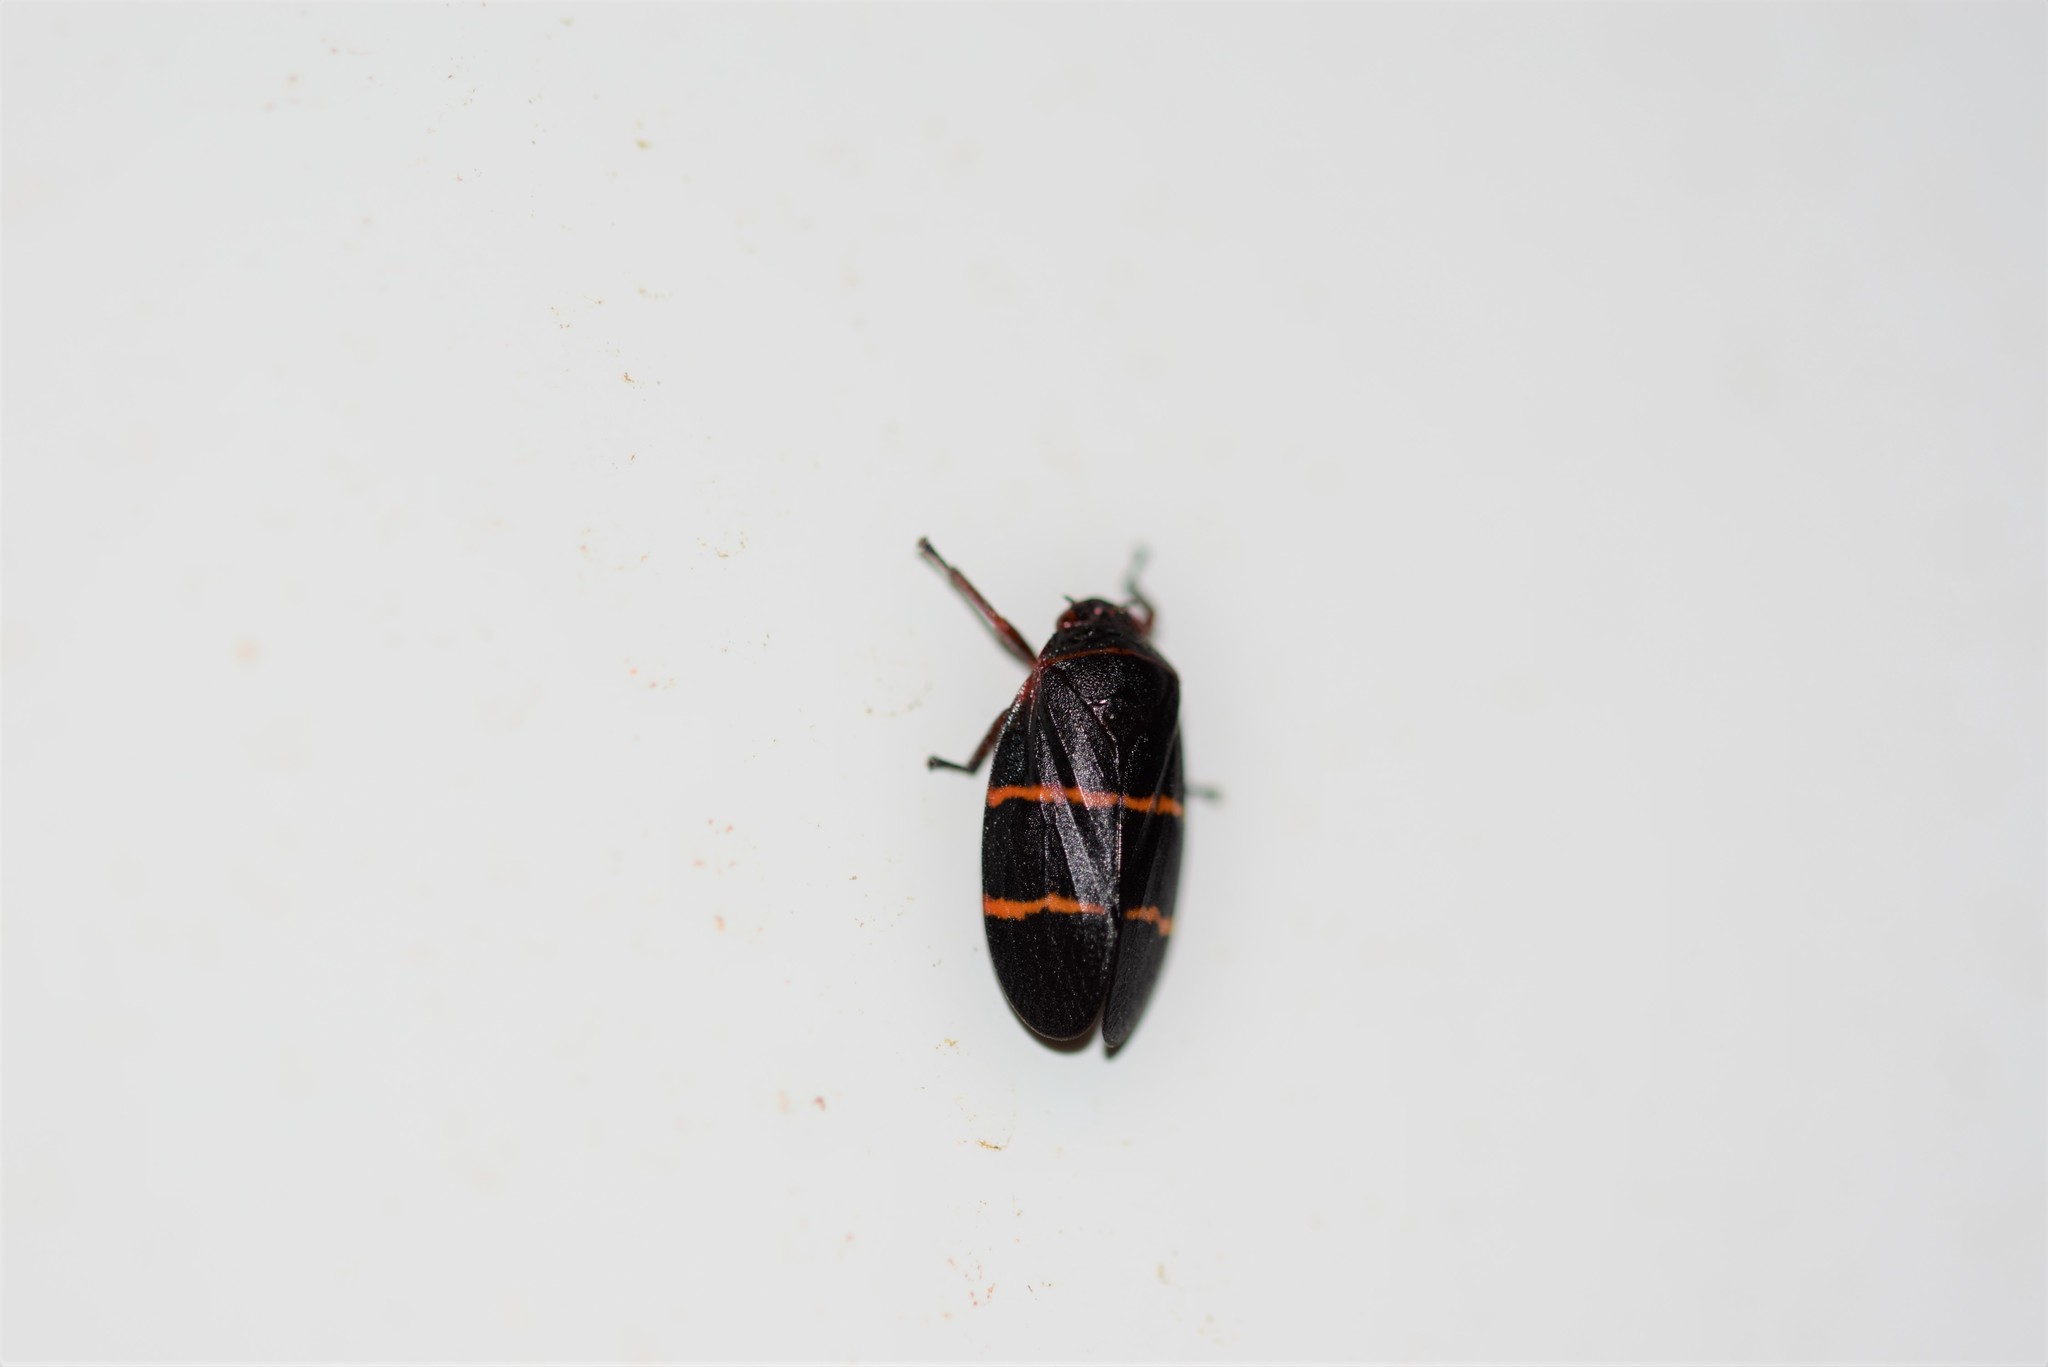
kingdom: Animalia
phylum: Arthropoda
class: Insecta
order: Hemiptera
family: Cercopidae
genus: Prosapia
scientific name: Prosapia bicincta
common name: Twolined spittlebug
